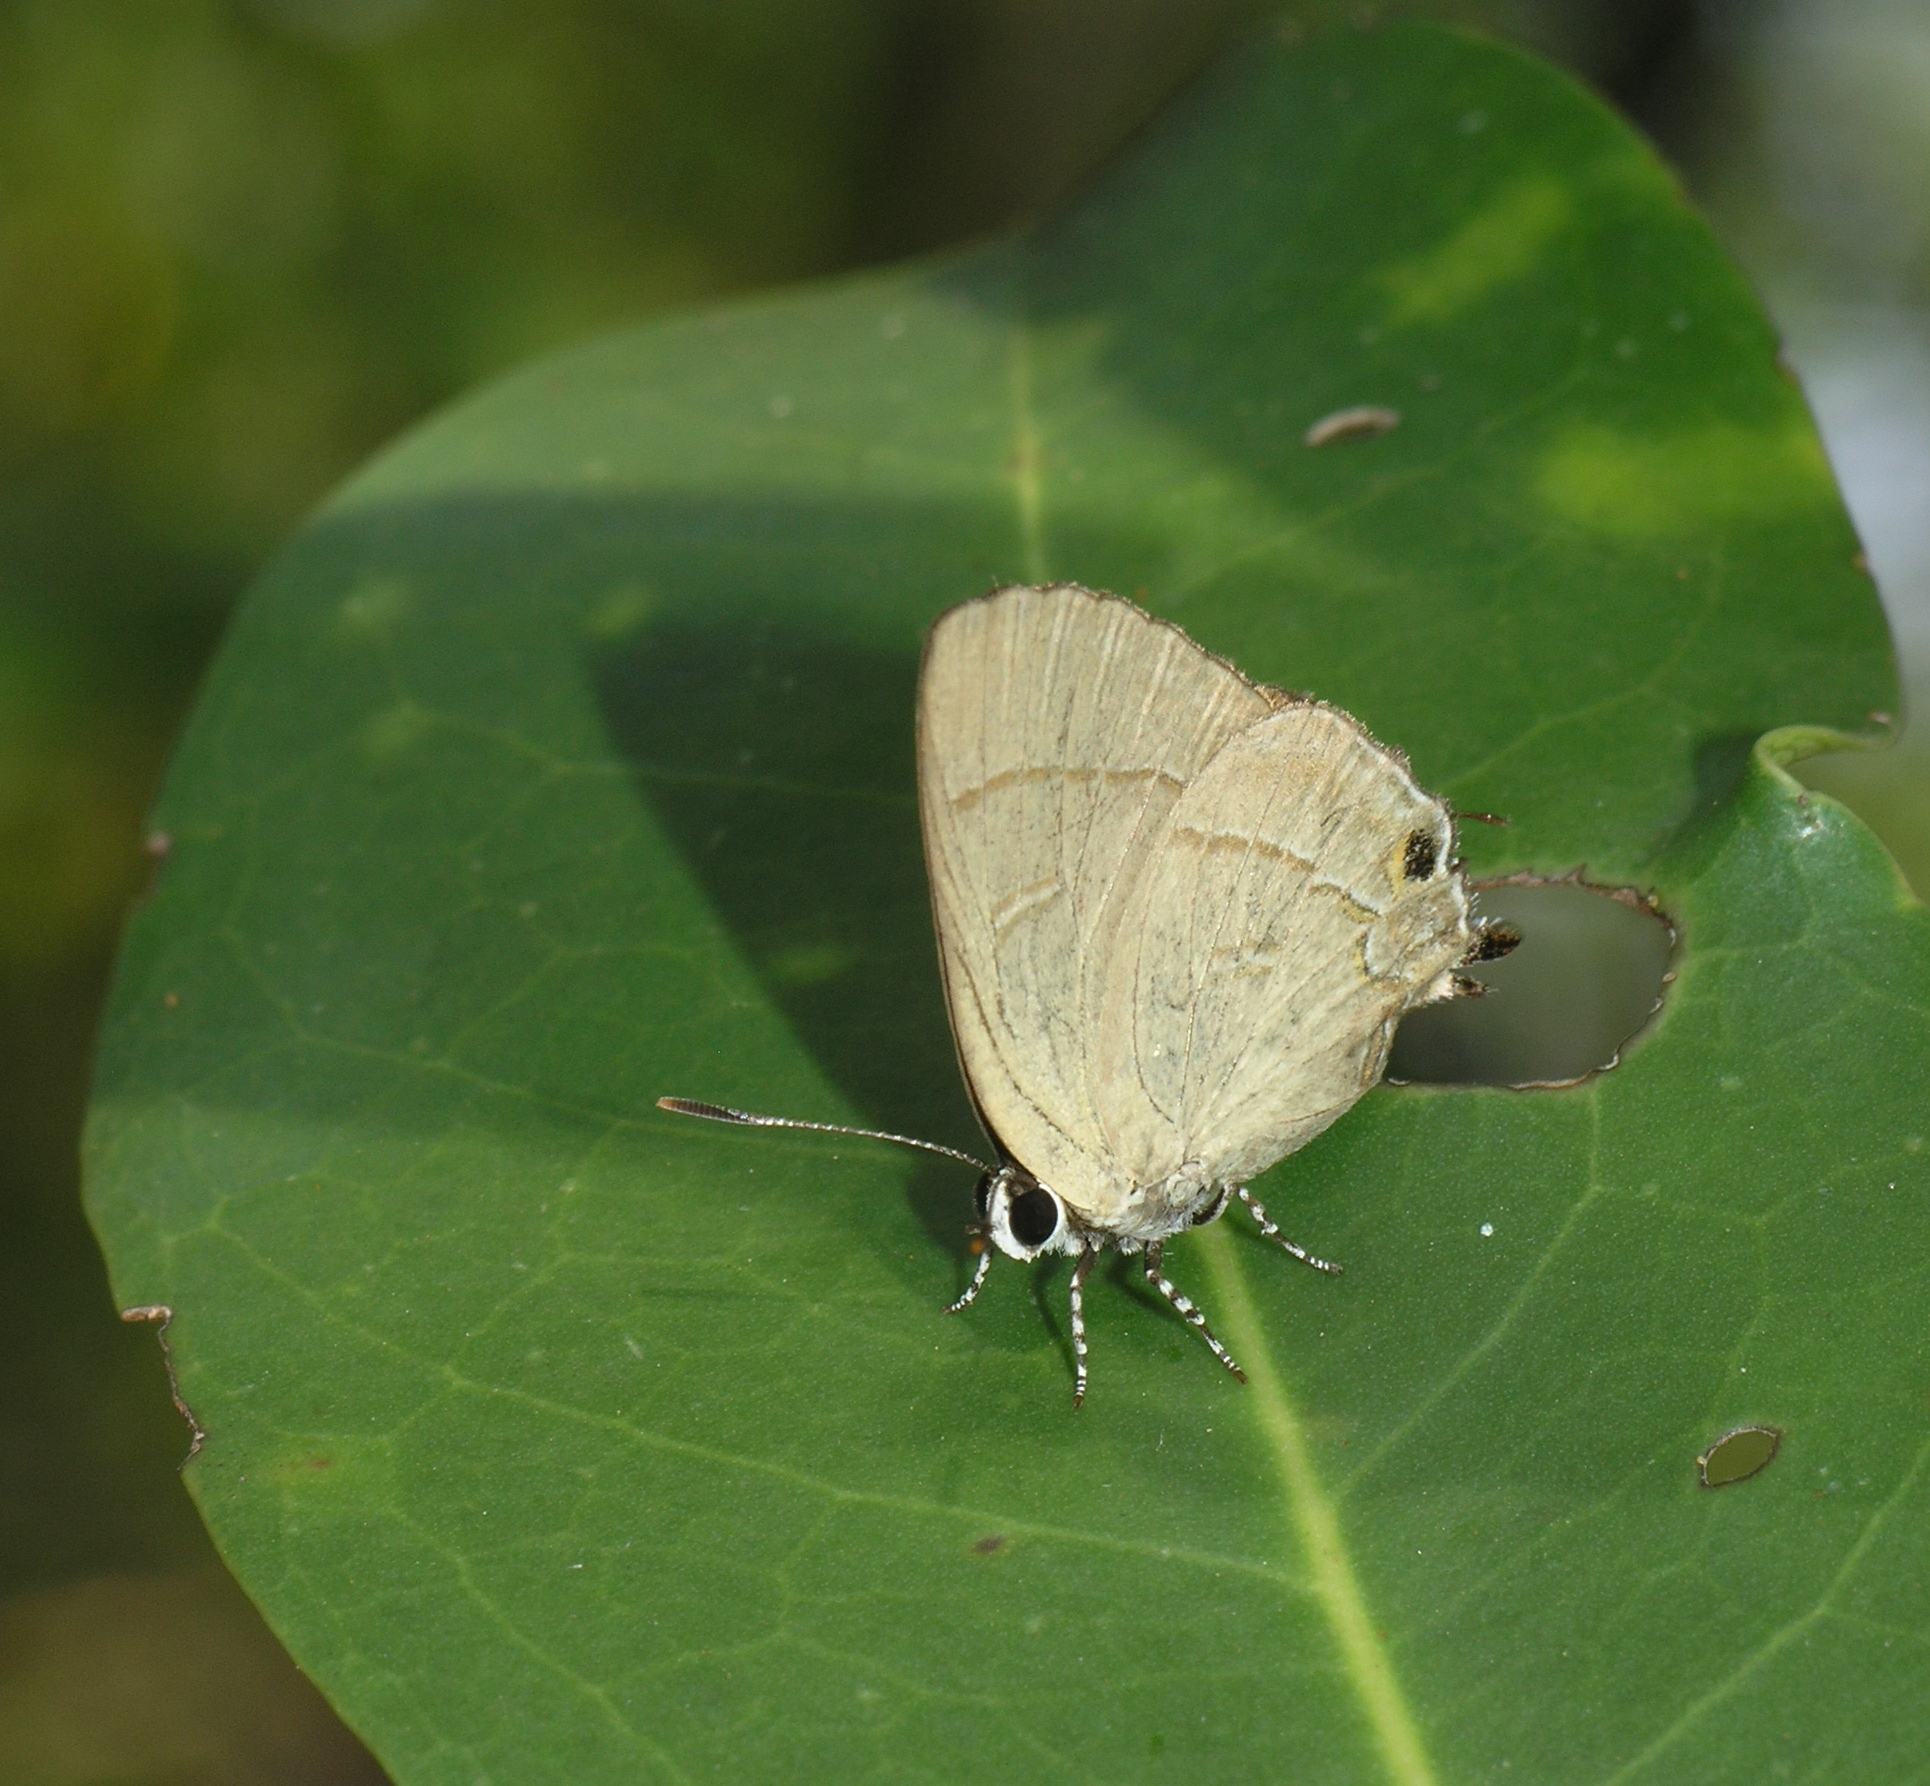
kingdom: Animalia
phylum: Arthropoda
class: Insecta
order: Lepidoptera
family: Lycaenidae
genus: Rapala
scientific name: Rapala dieneces
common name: Scarlet flash
